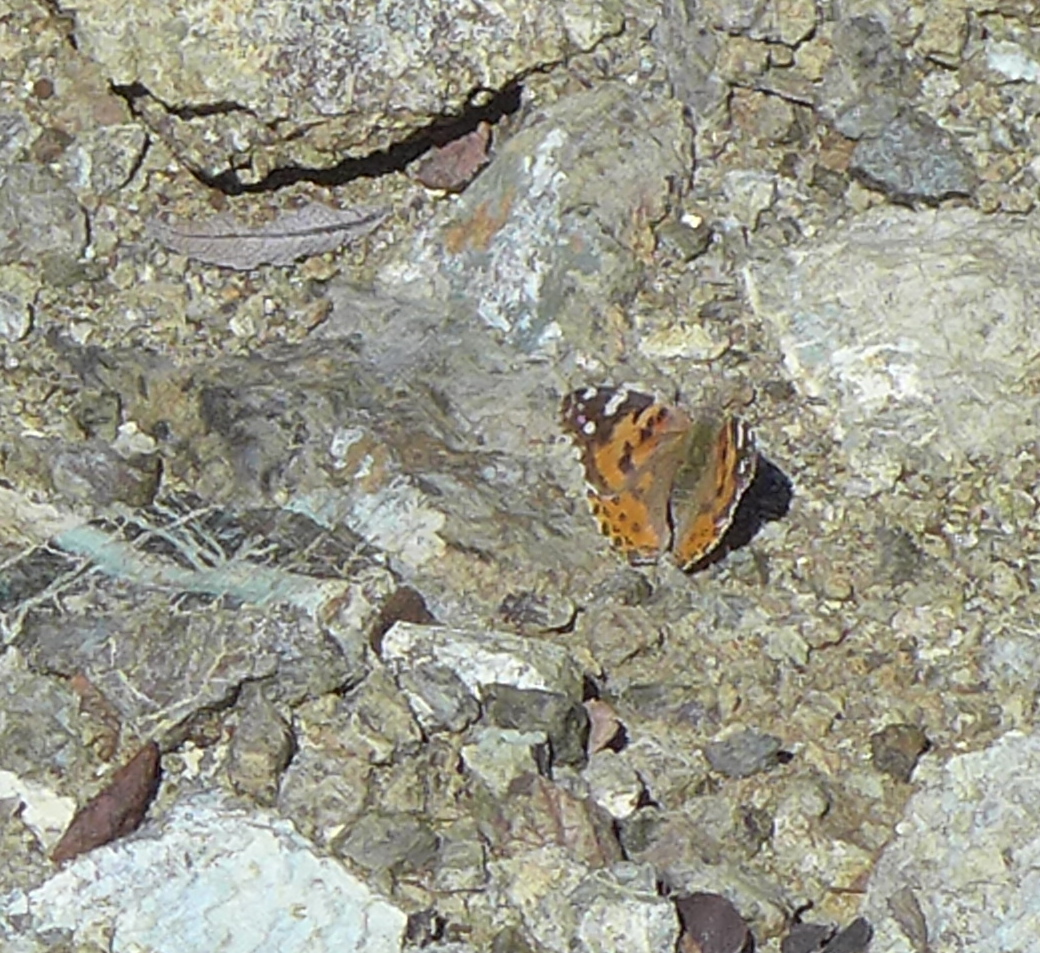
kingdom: Animalia
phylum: Arthropoda
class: Insecta
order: Lepidoptera
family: Nymphalidae
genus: Vanessa
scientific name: Vanessa cardui
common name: Painted lady
